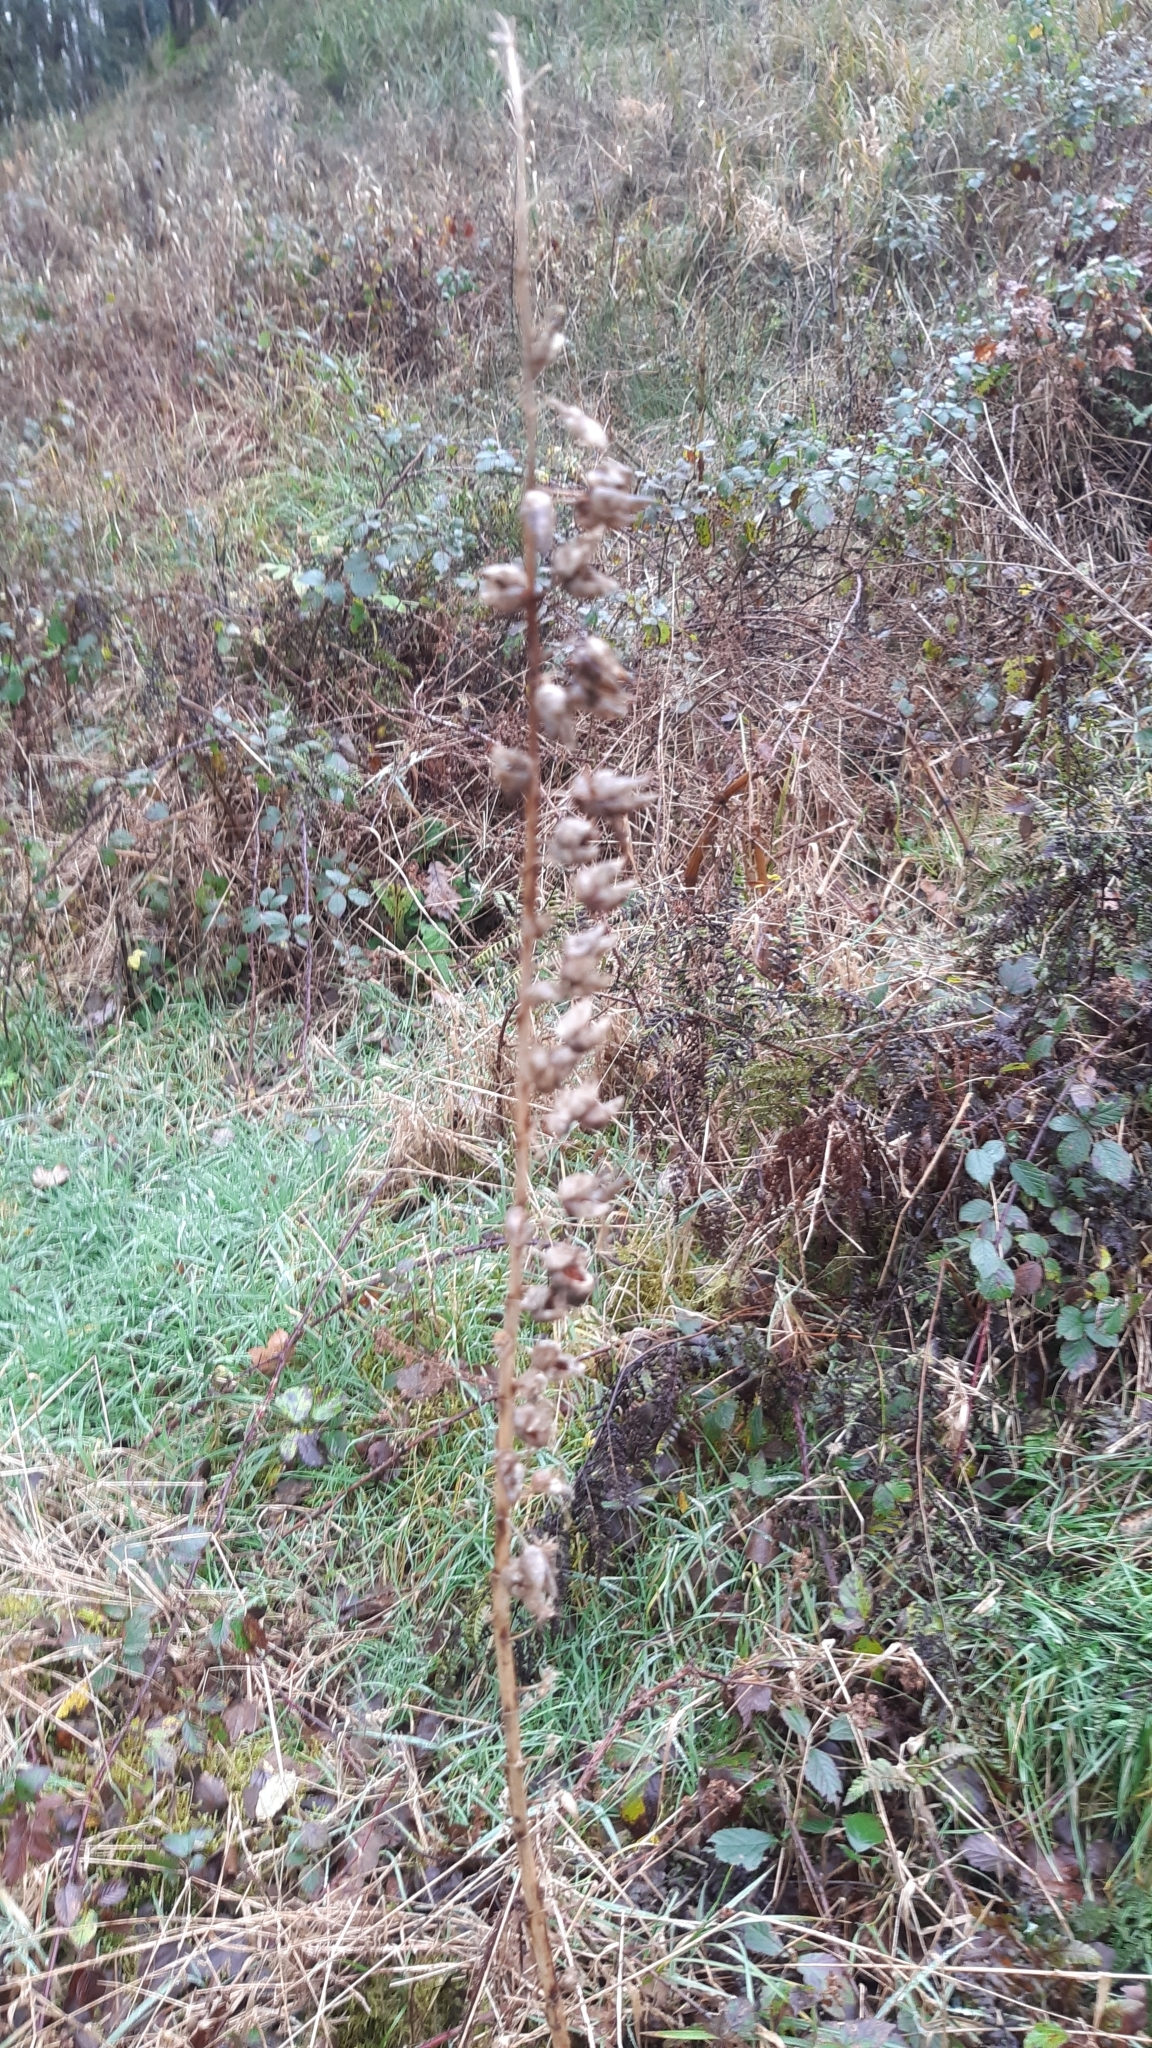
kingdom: Plantae
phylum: Tracheophyta
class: Magnoliopsida
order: Lamiales
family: Plantaginaceae
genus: Digitalis
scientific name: Digitalis purpurea
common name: Foxglove
